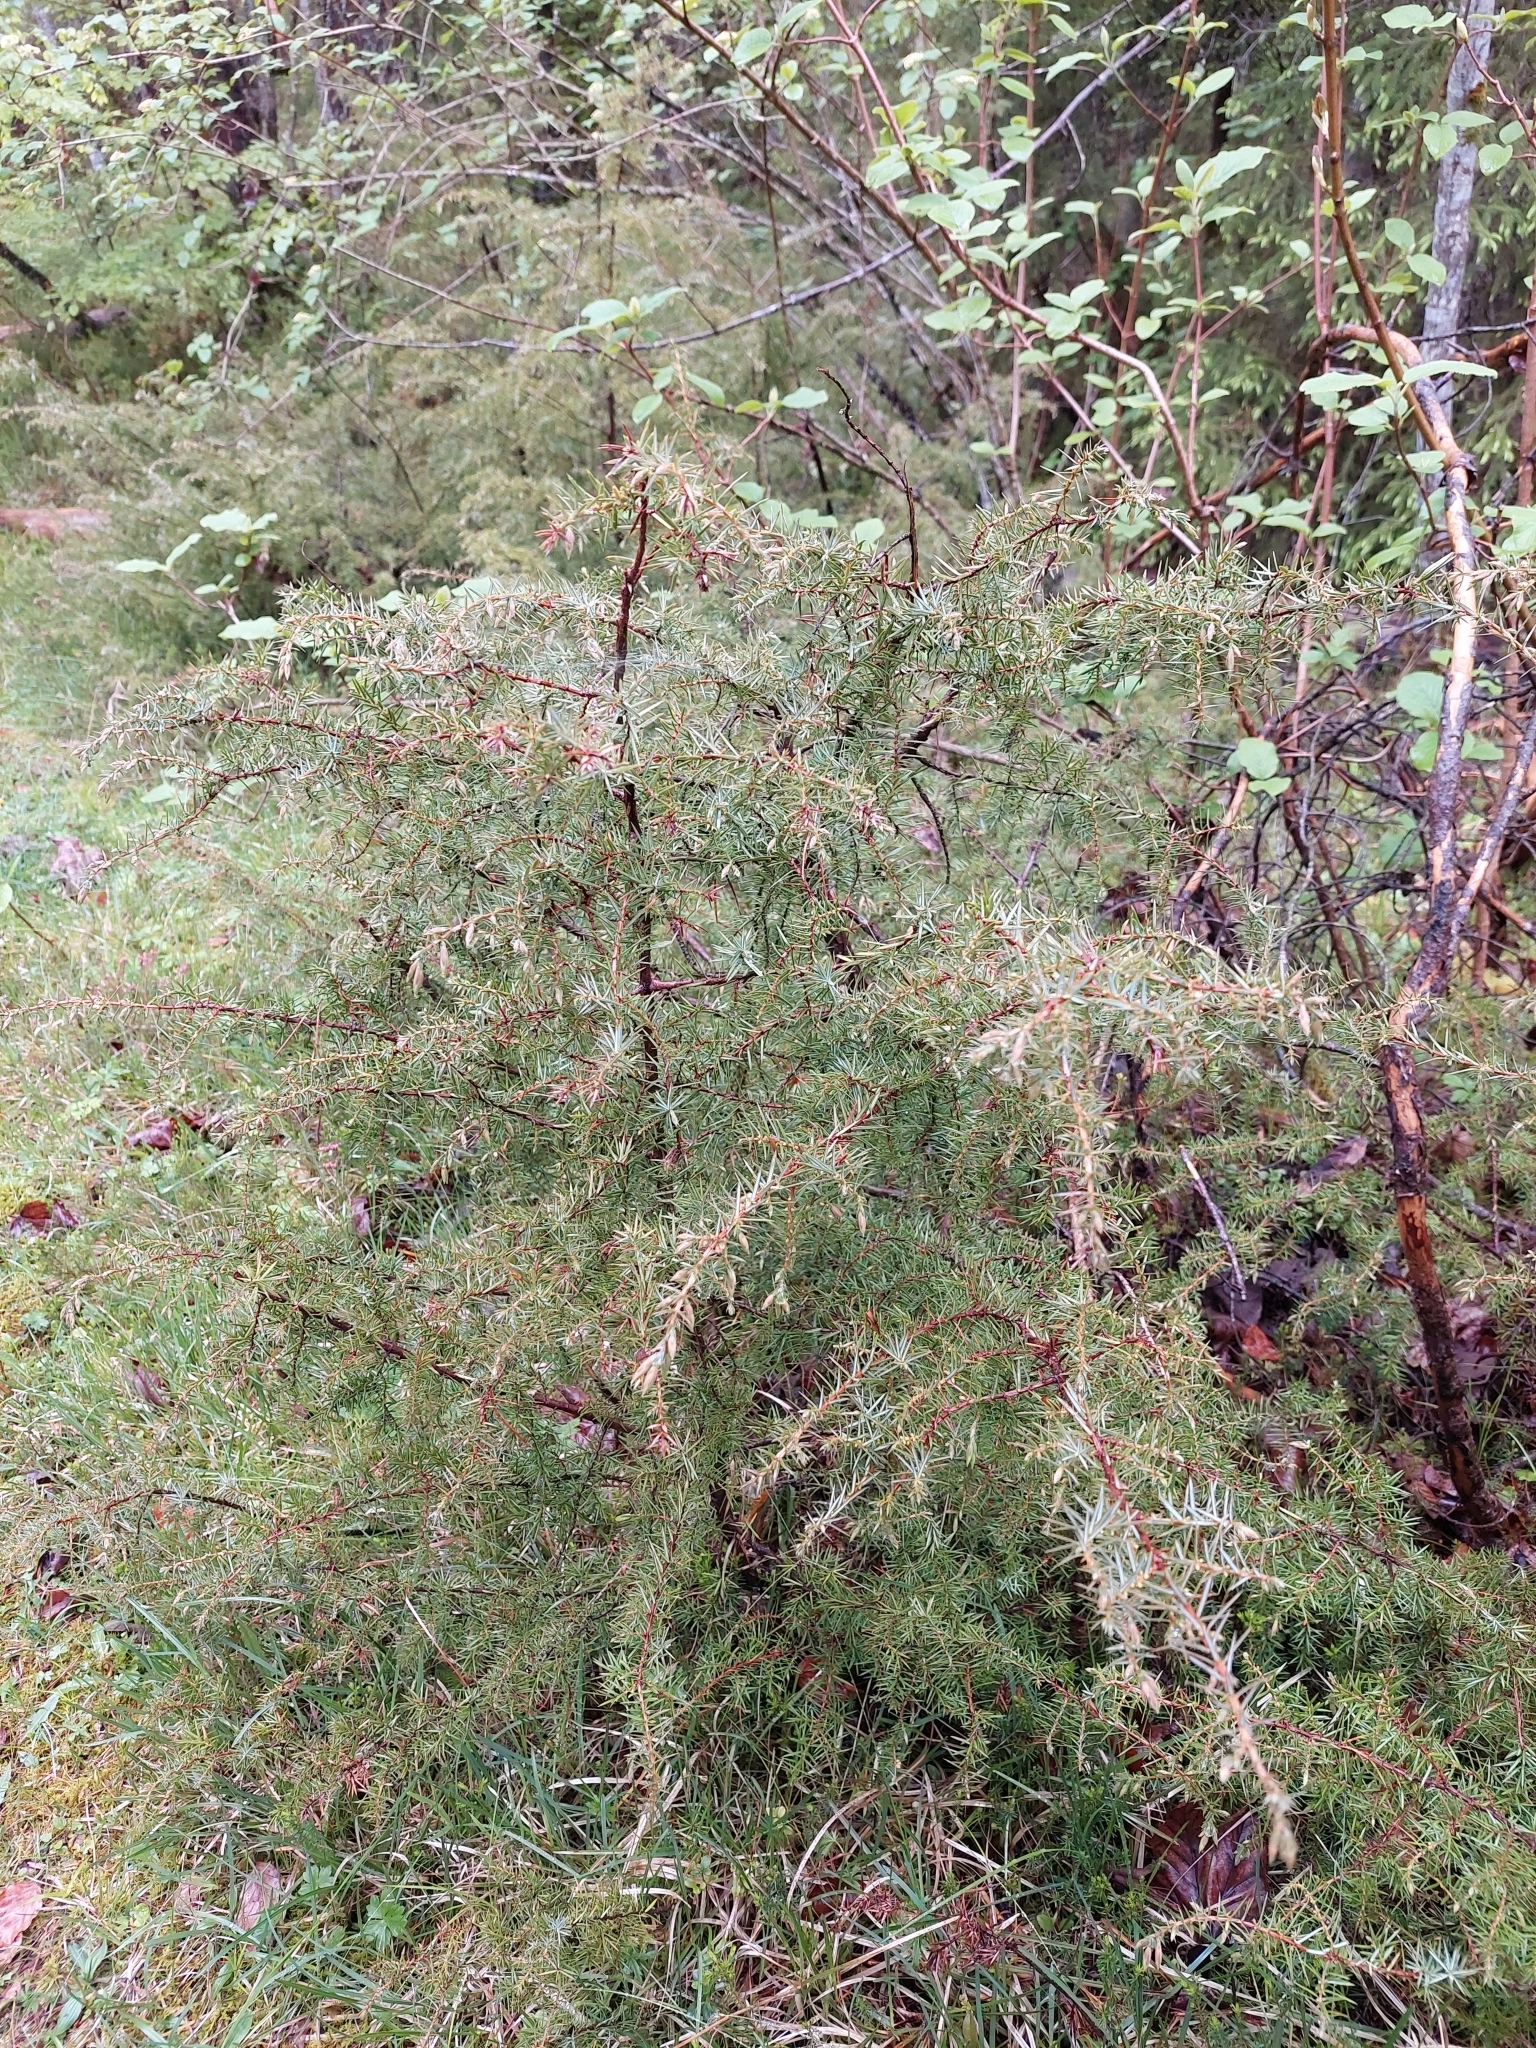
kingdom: Plantae
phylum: Tracheophyta
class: Pinopsida
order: Pinales
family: Cupressaceae
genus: Juniperus
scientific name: Juniperus communis
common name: Common juniper
